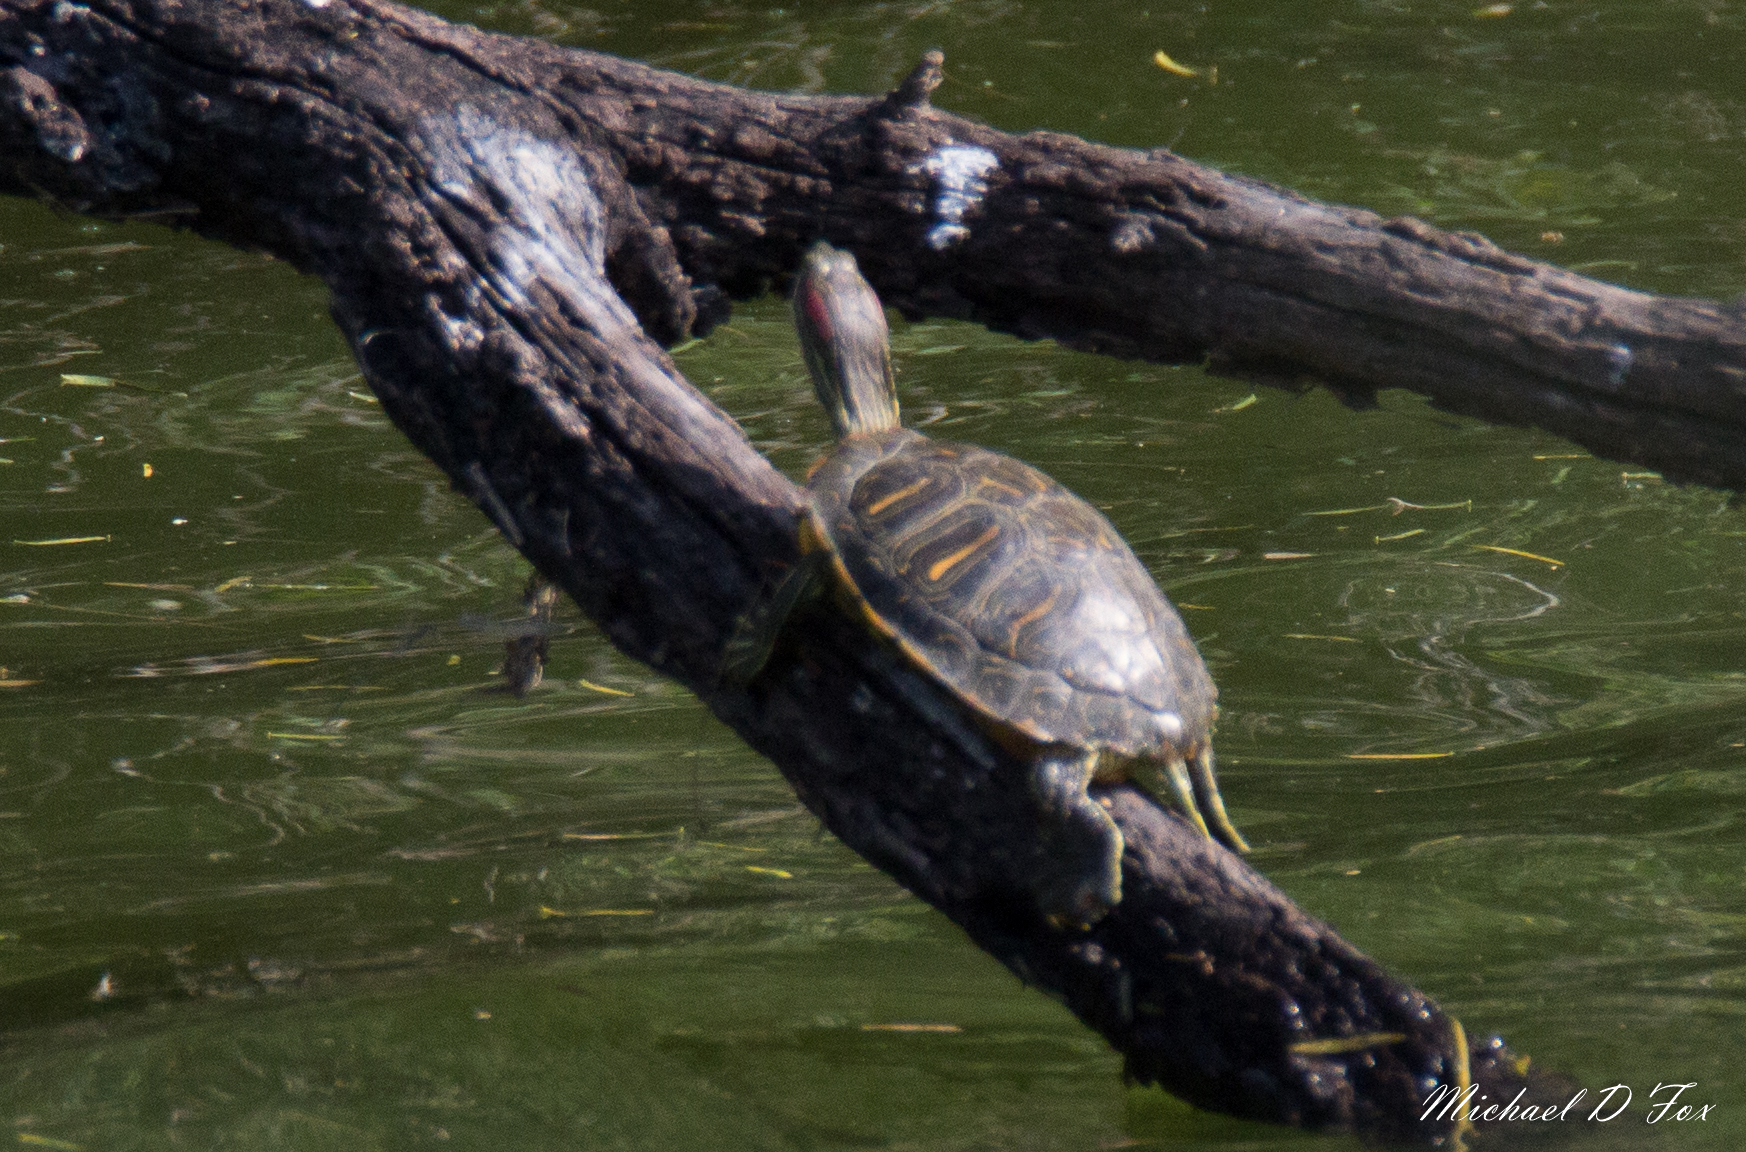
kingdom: Animalia
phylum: Chordata
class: Testudines
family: Emydidae
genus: Trachemys
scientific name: Trachemys scripta
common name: Slider
